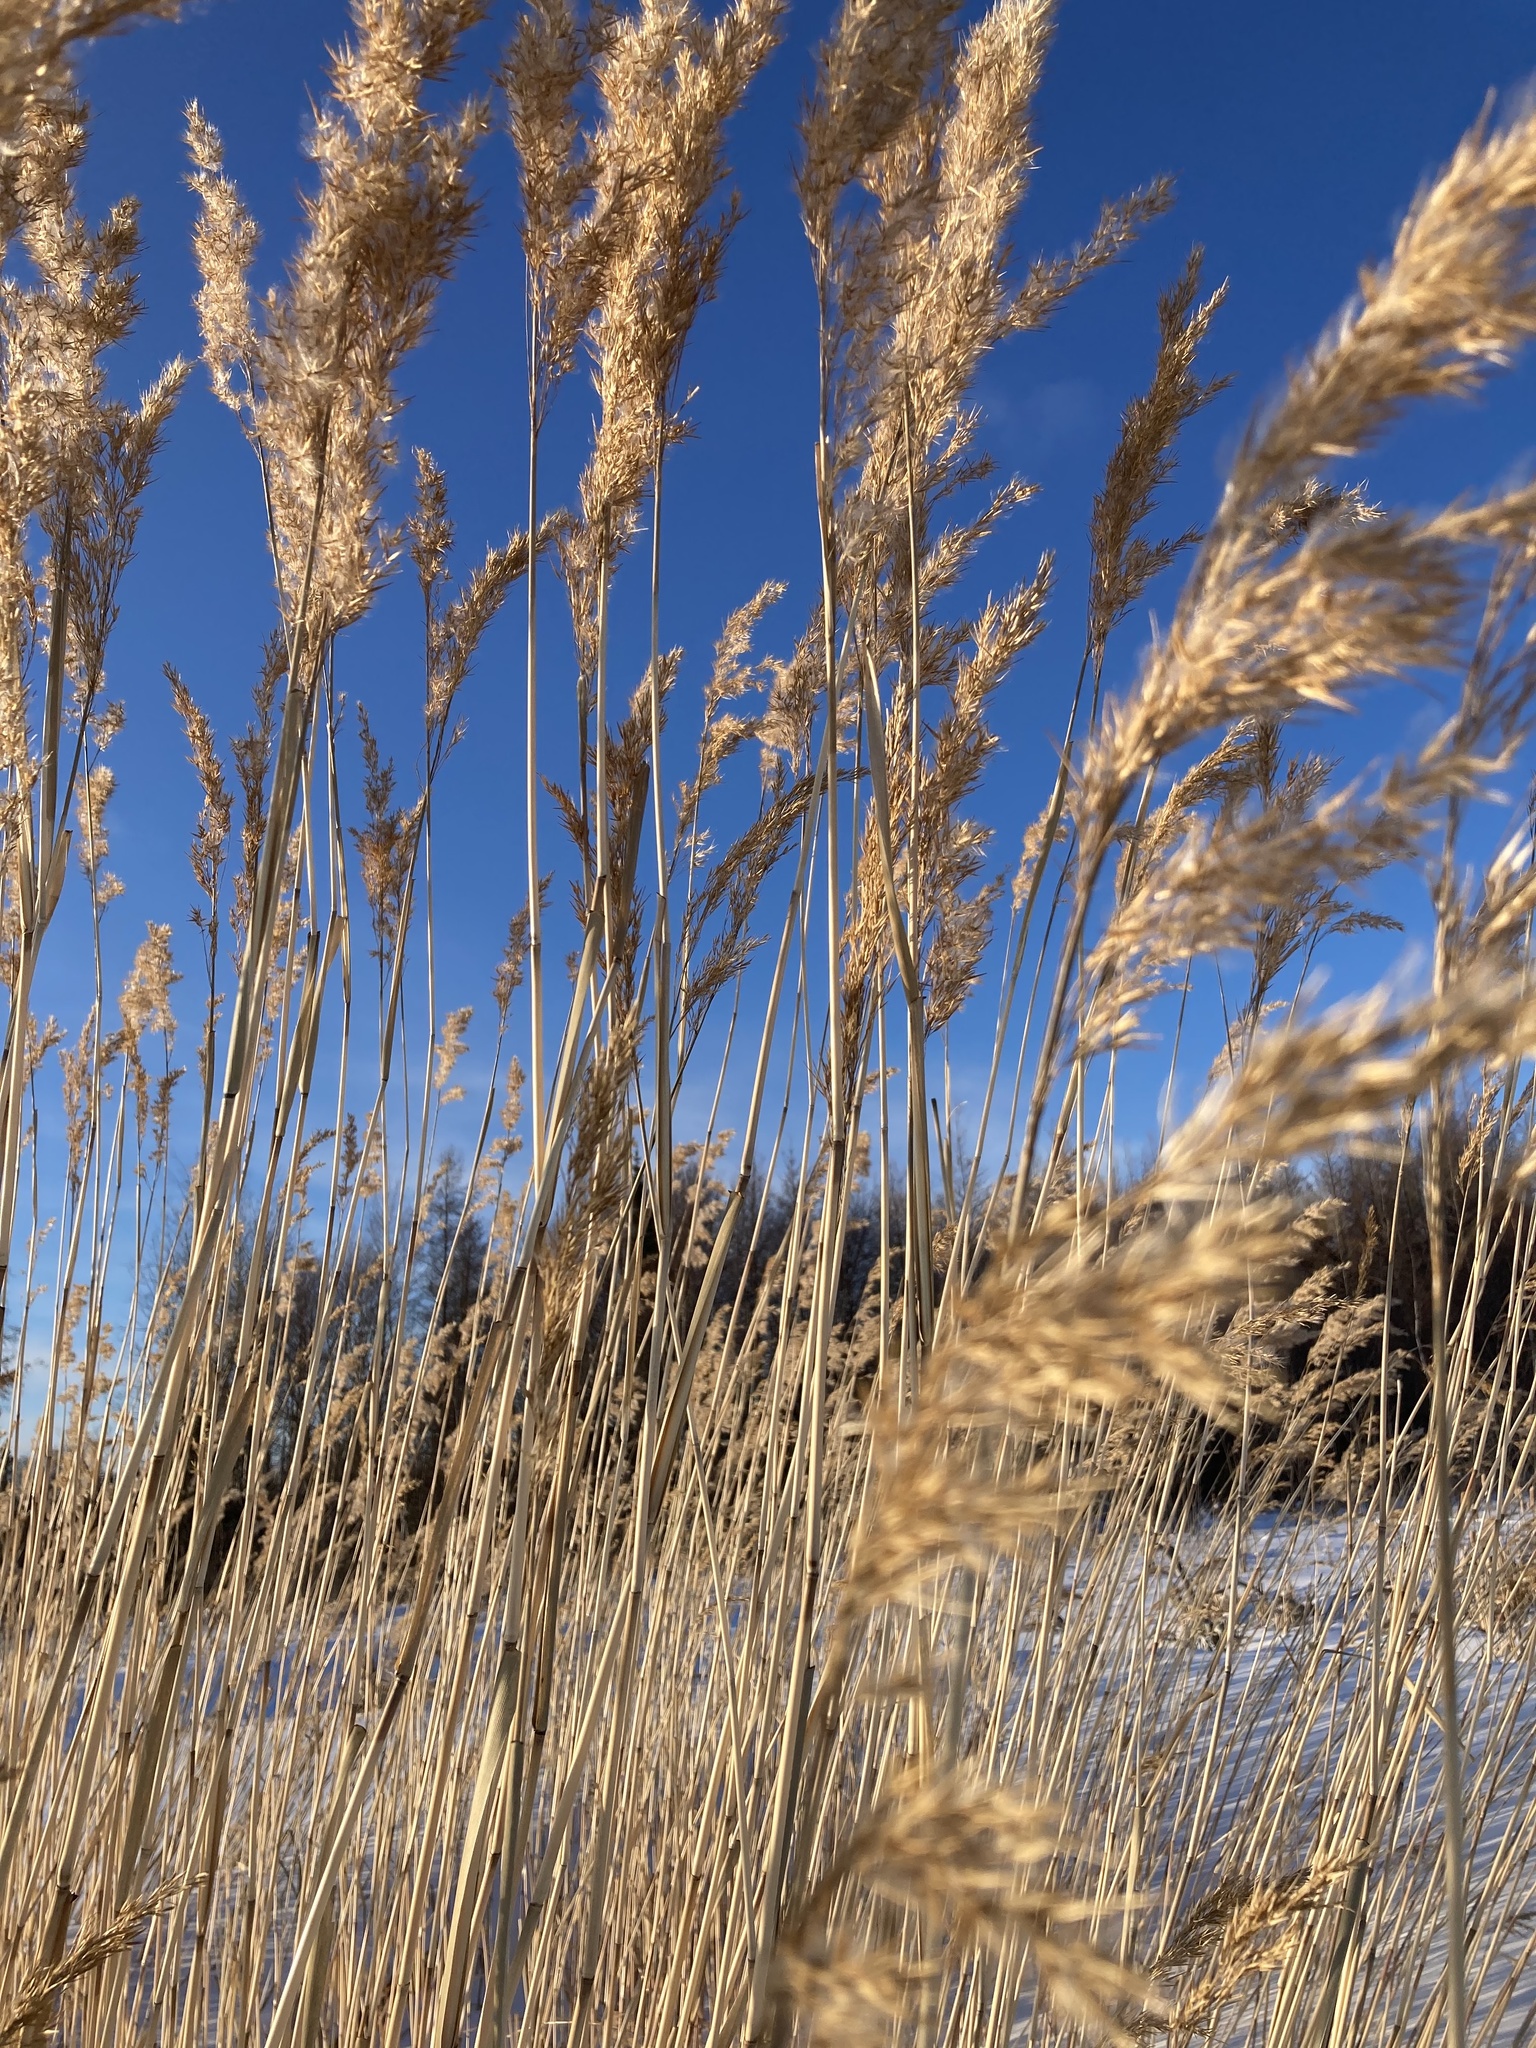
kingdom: Plantae
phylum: Tracheophyta
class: Liliopsida
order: Poales
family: Poaceae
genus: Phragmites
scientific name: Phragmites australis
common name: Common reed
